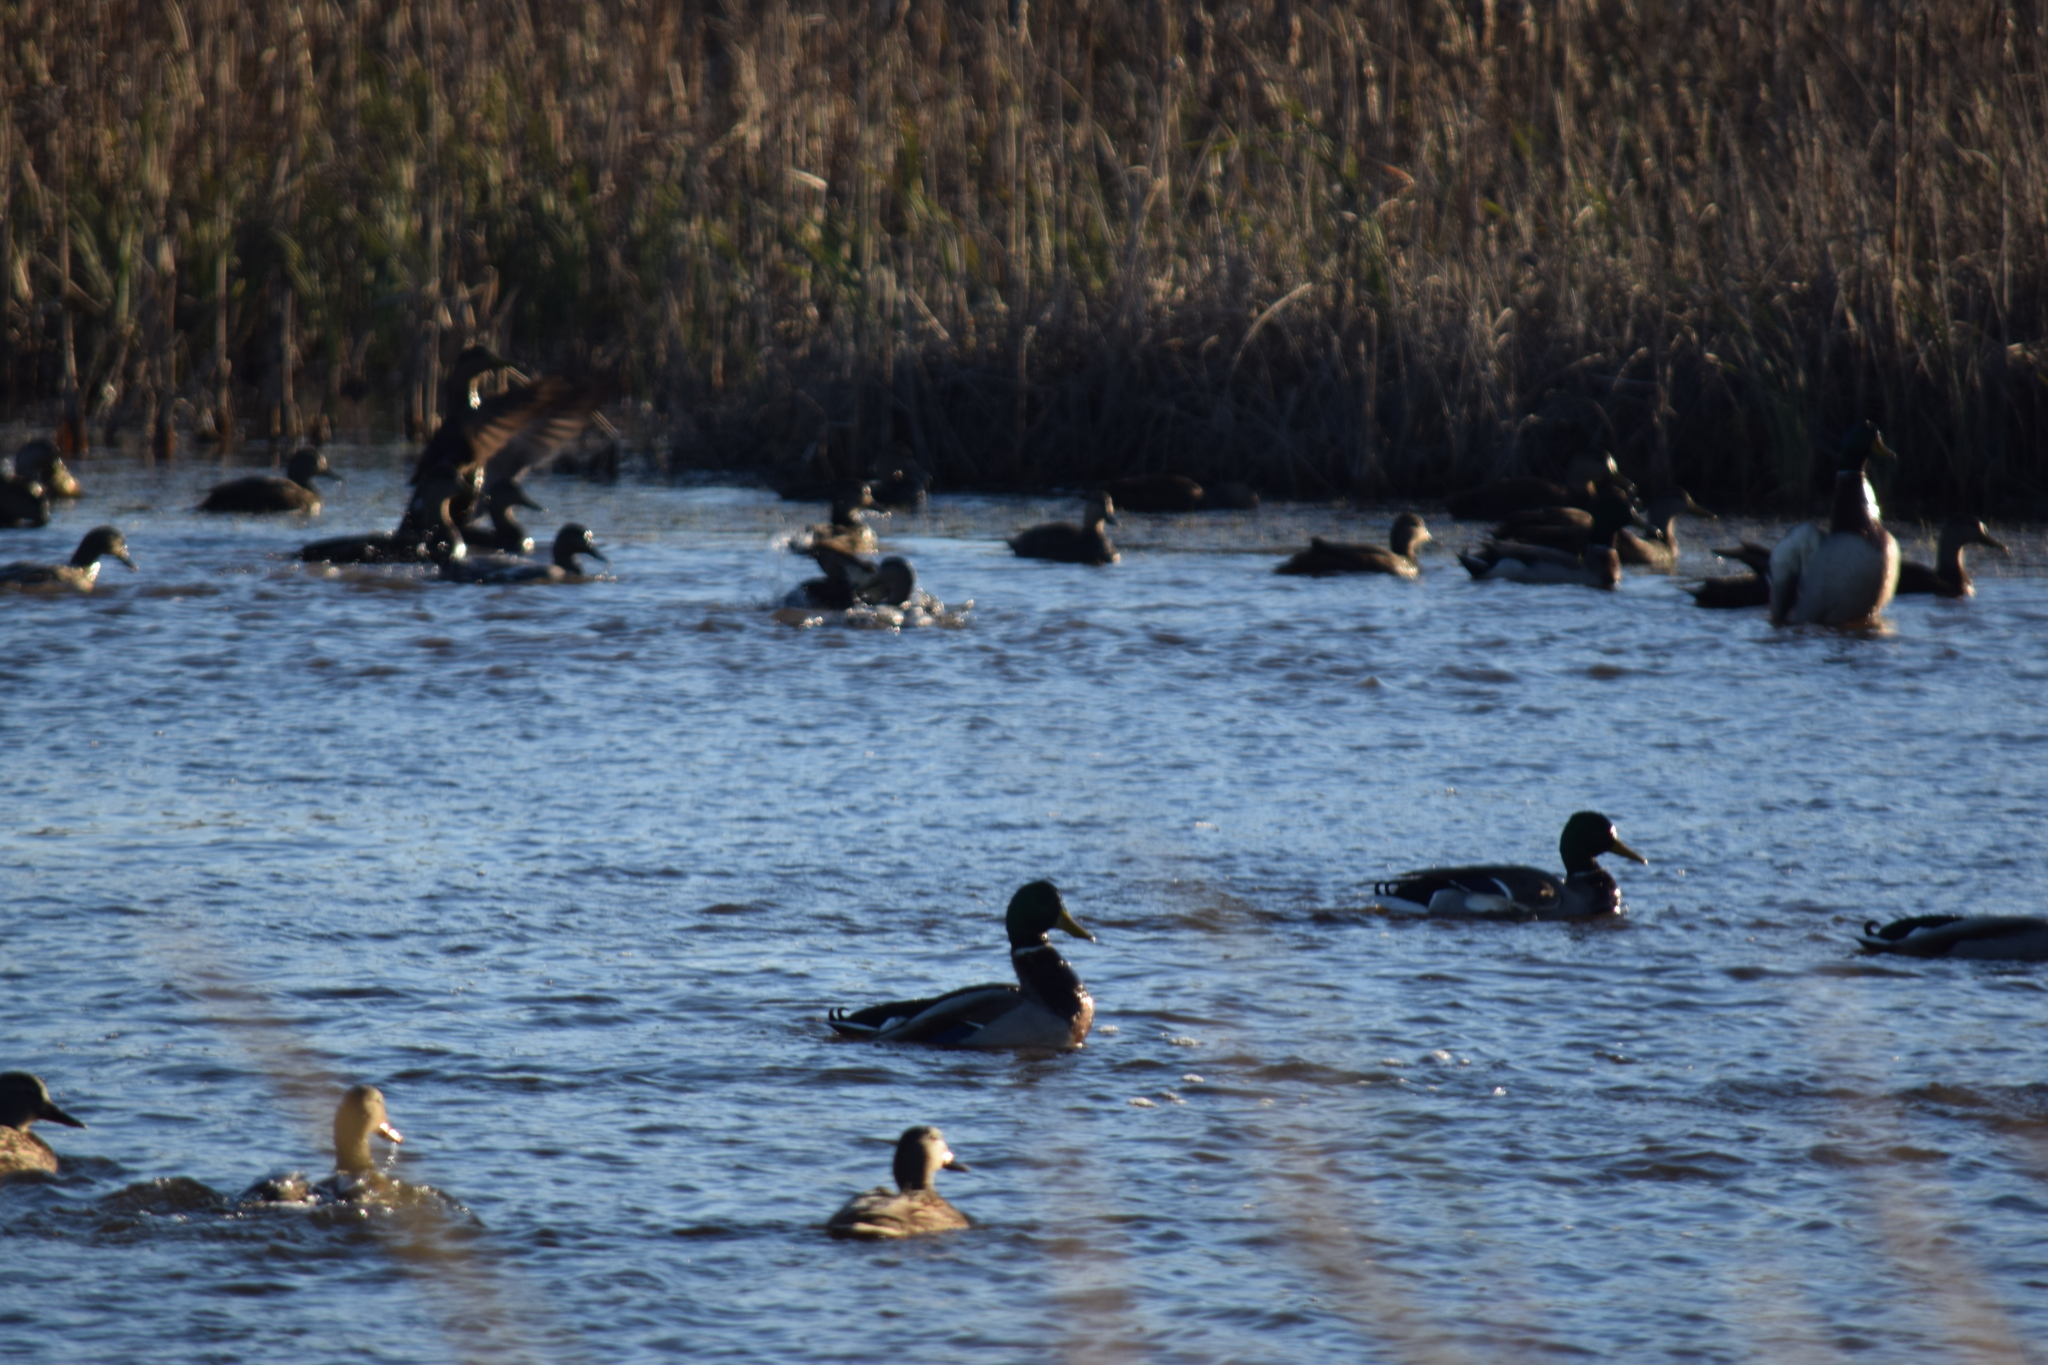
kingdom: Animalia
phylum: Chordata
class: Aves
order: Anseriformes
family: Anatidae
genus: Anas
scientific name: Anas platyrhynchos
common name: Mallard
